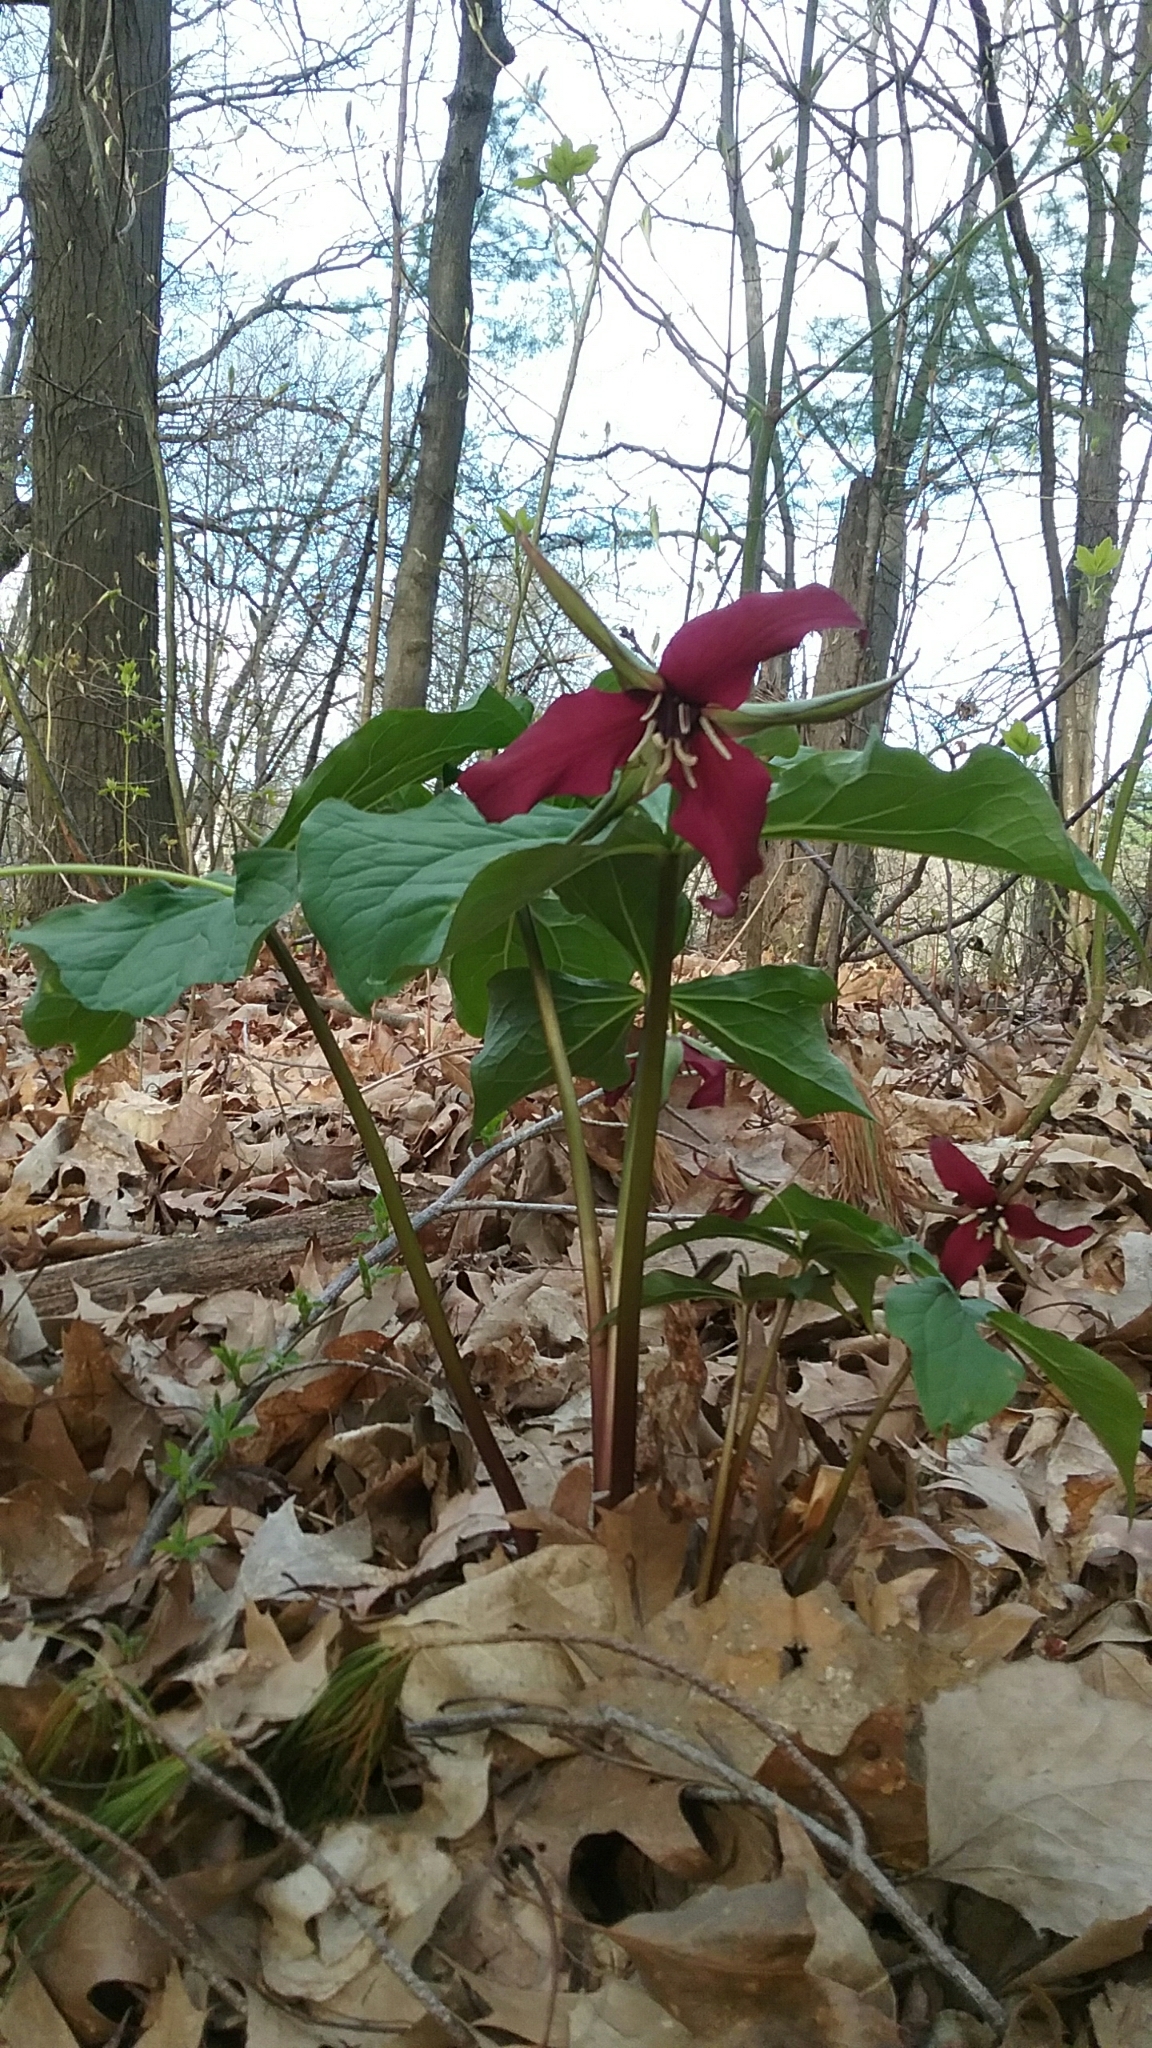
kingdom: Plantae
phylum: Tracheophyta
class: Liliopsida
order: Liliales
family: Melanthiaceae
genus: Trillium
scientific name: Trillium erectum
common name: Purple trillium
